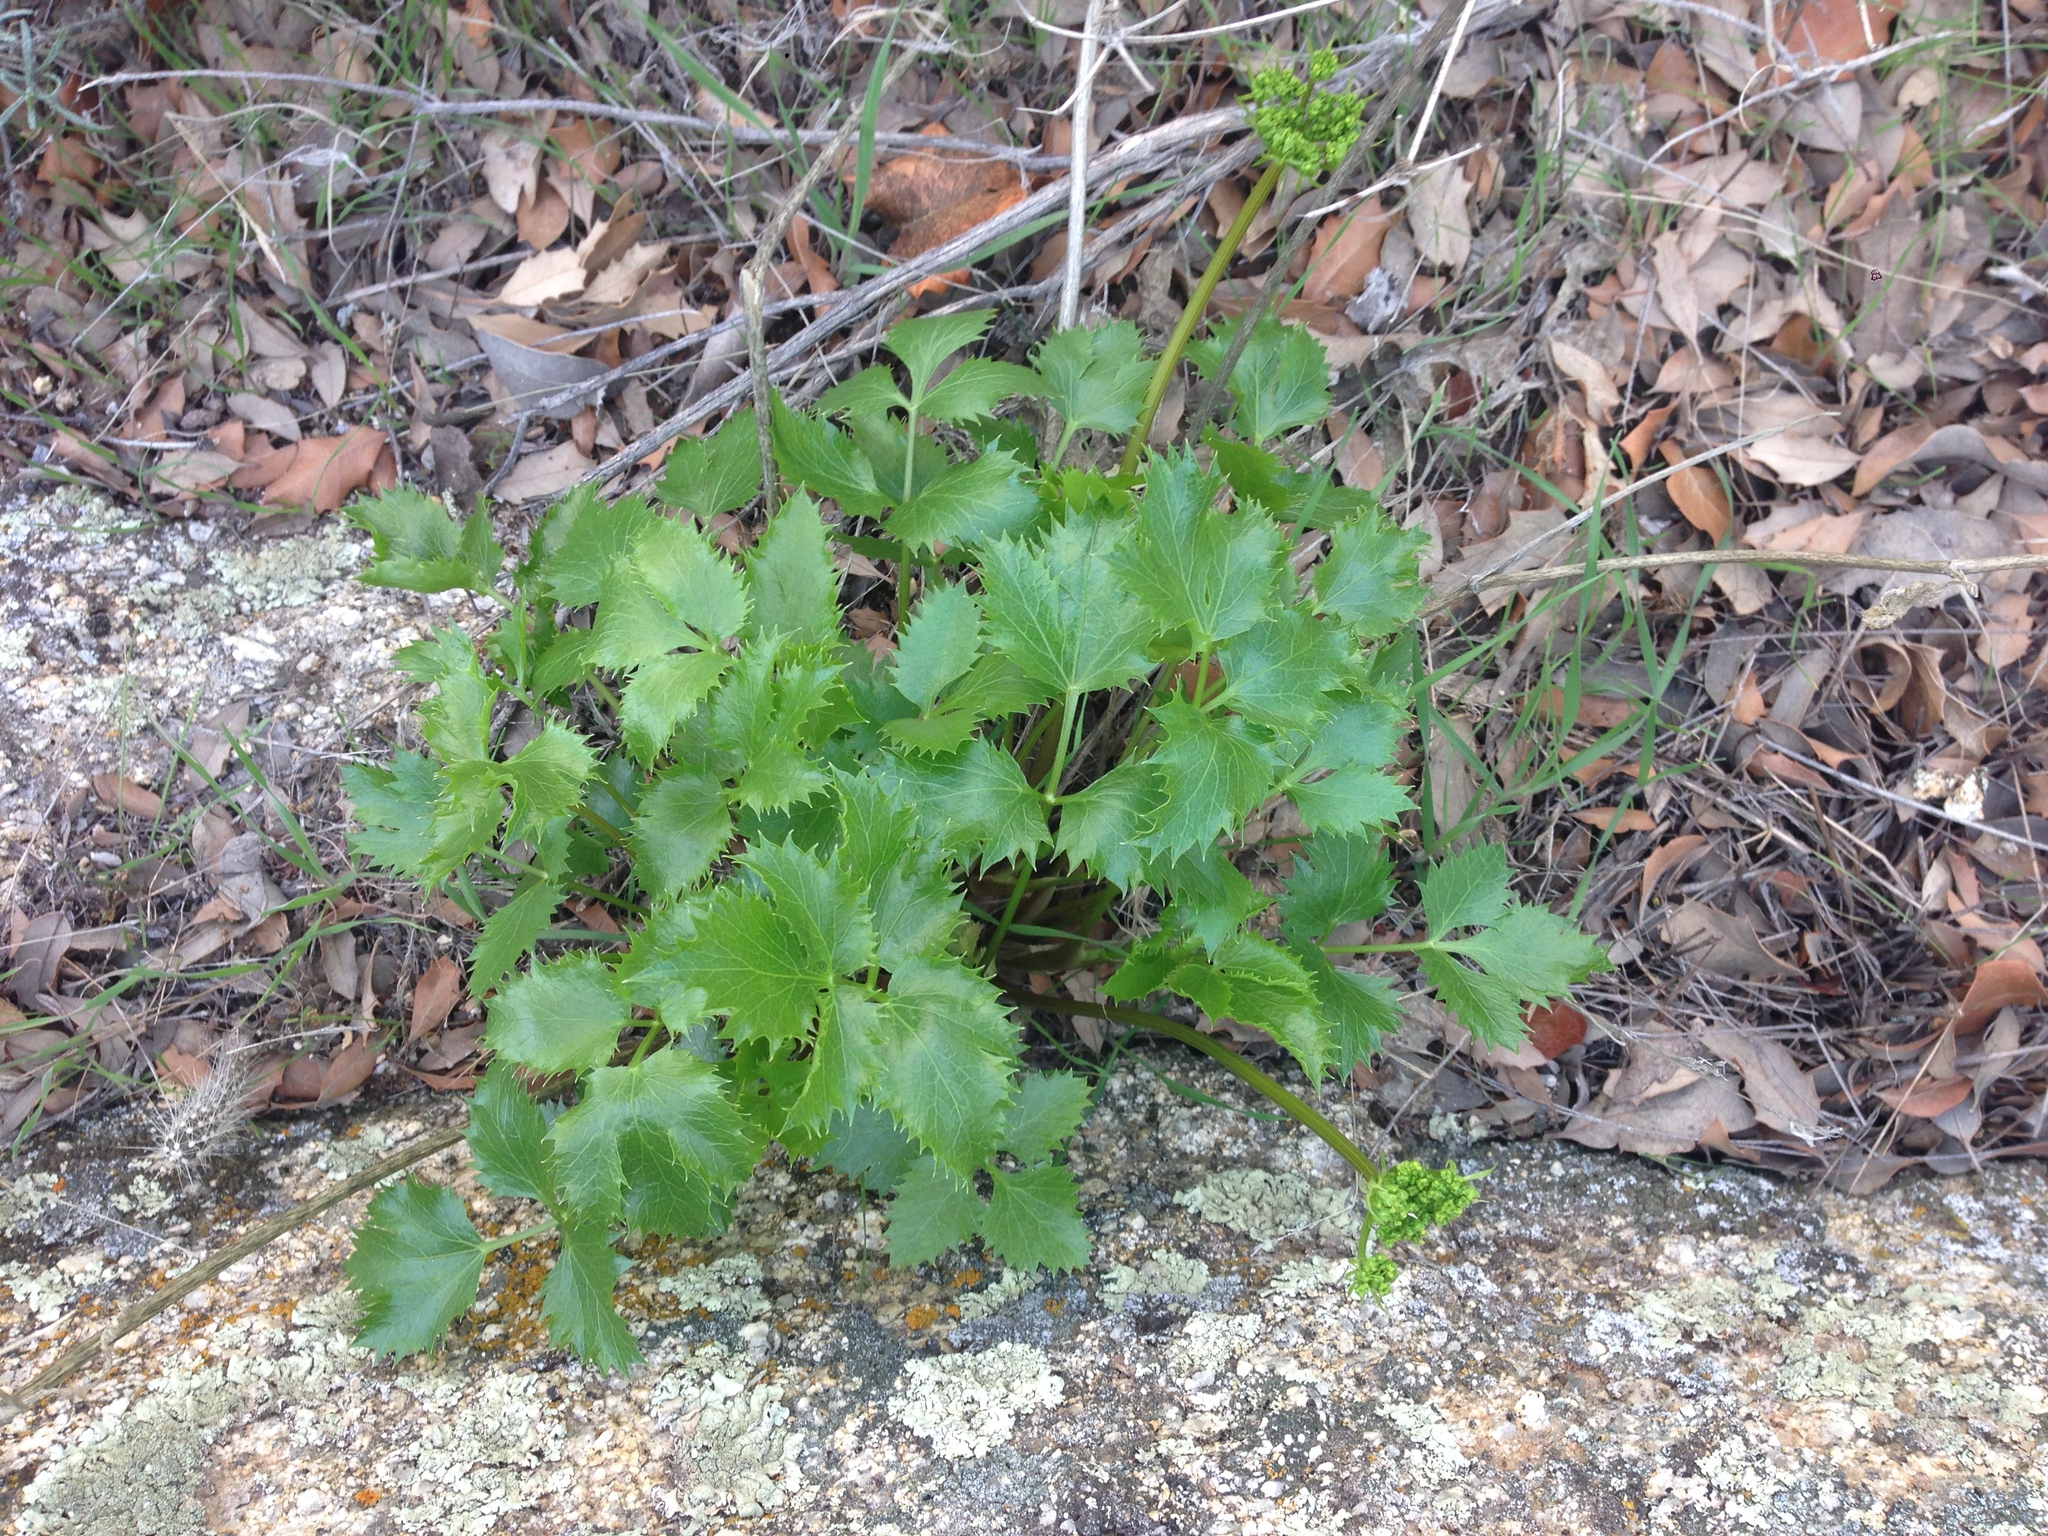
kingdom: Plantae
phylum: Tracheophyta
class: Magnoliopsida
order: Apiales
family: Apiaceae
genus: Tauschia
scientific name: Tauschia arguta
